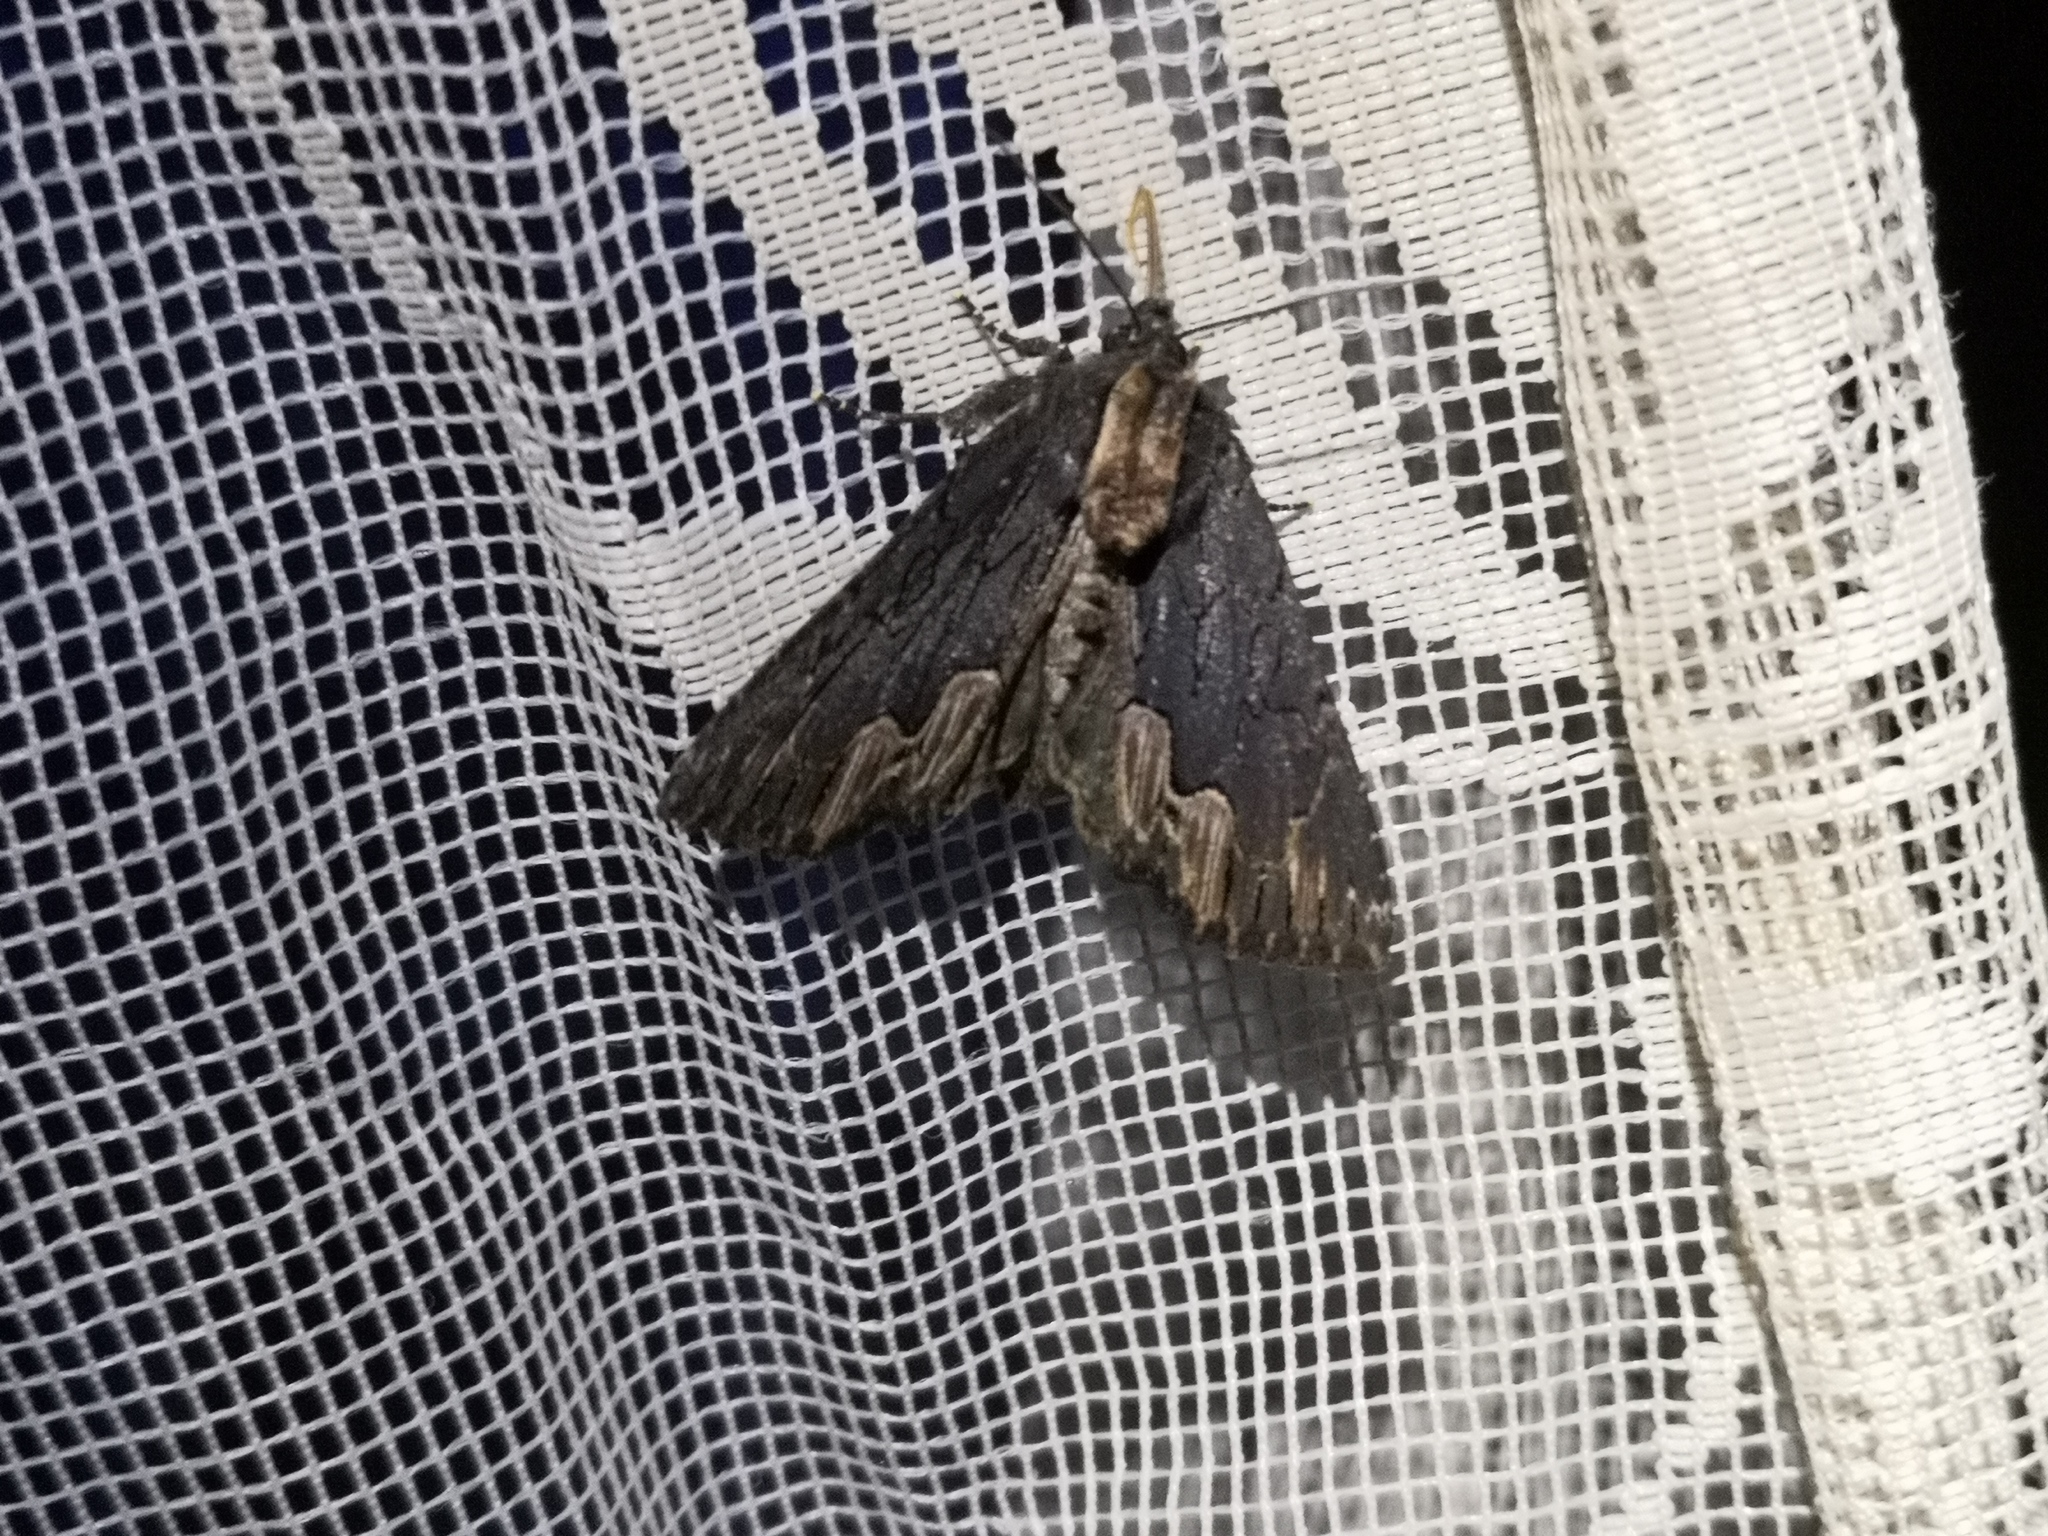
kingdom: Animalia
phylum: Arthropoda
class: Insecta
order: Lepidoptera
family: Noctuidae
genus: Dypterygia
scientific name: Dypterygia scabriuscula
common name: Bird's wing
